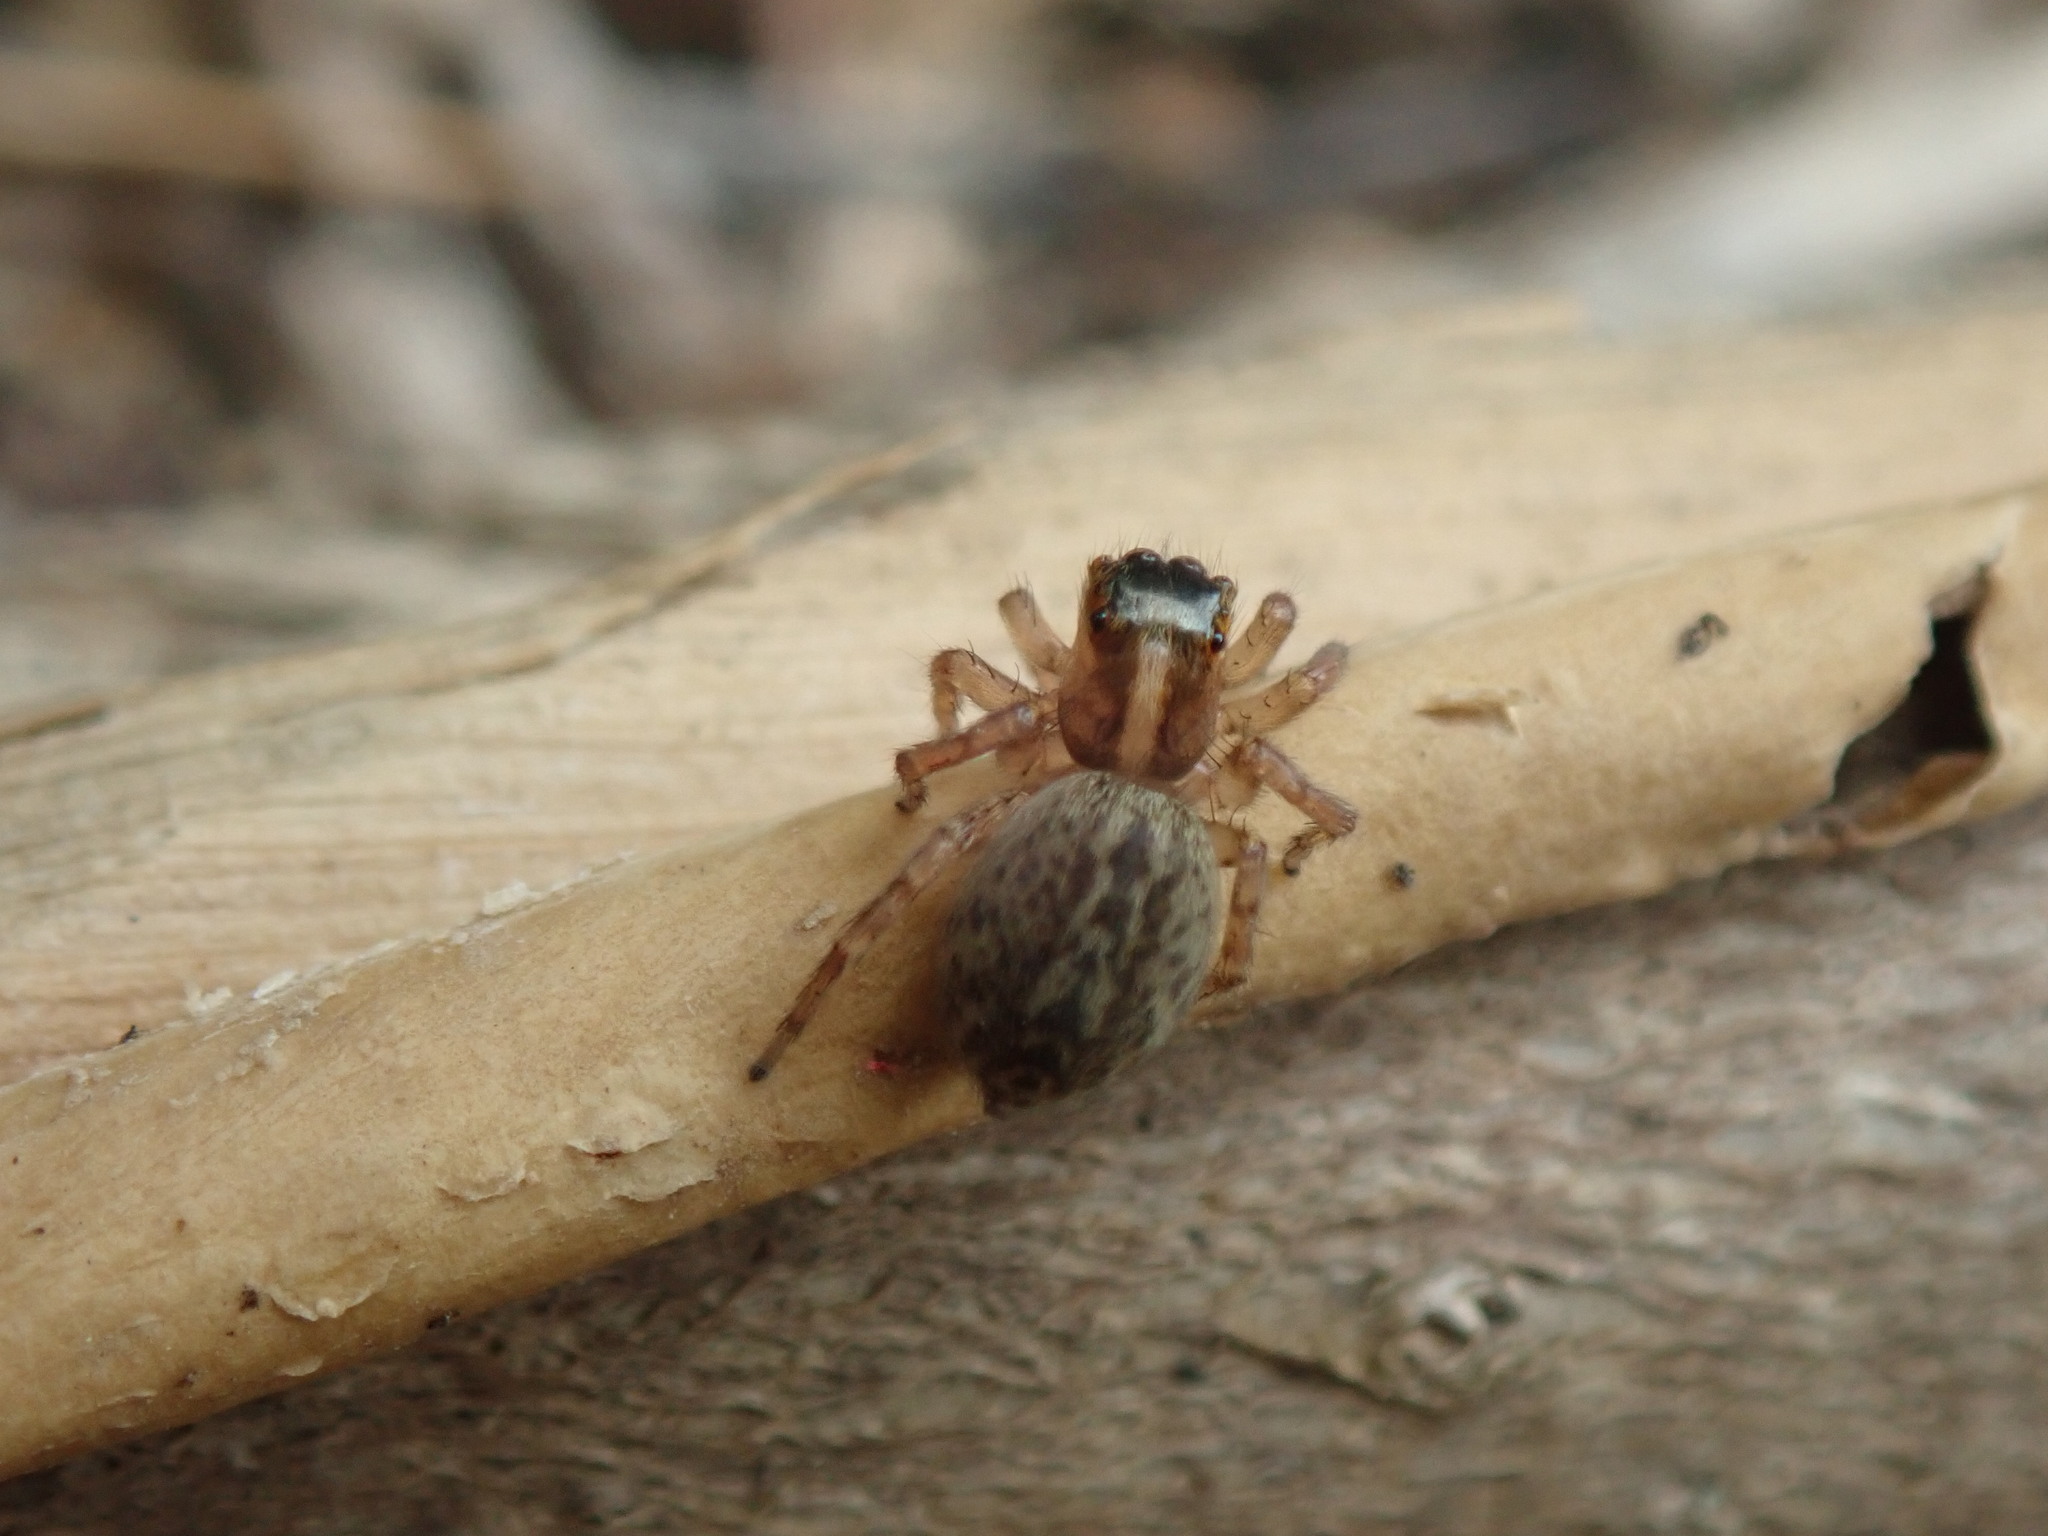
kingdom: Animalia
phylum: Arthropoda
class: Arachnida
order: Araneae
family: Salticidae
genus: Saitis
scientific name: Saitis barbipes
